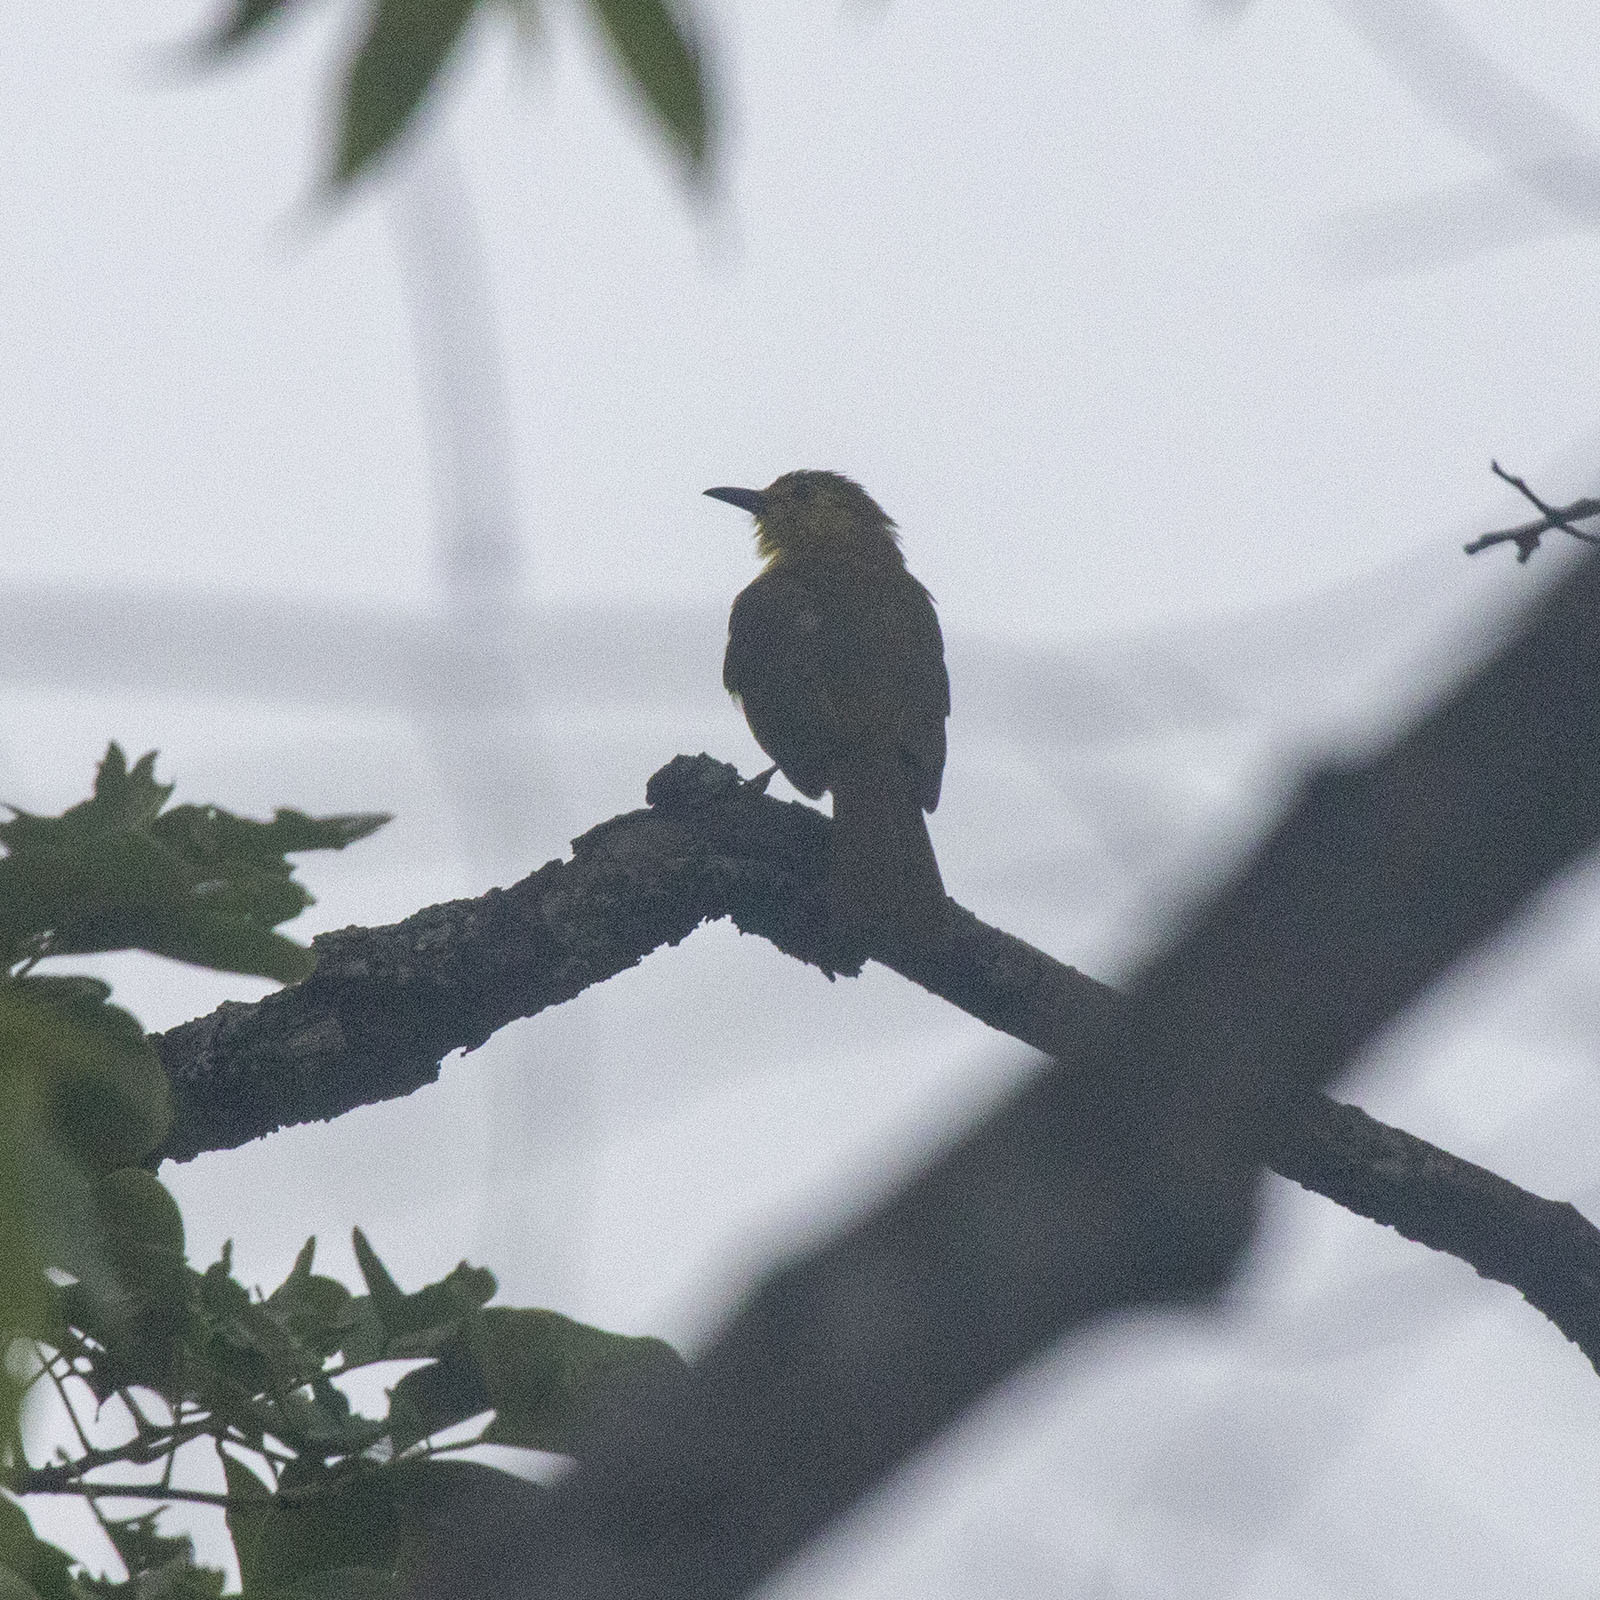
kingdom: Animalia
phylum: Chordata
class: Aves
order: Passeriformes
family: Pycnonotidae
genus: Acritillas
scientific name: Acritillas indica
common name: Yellow-browed bulbul
